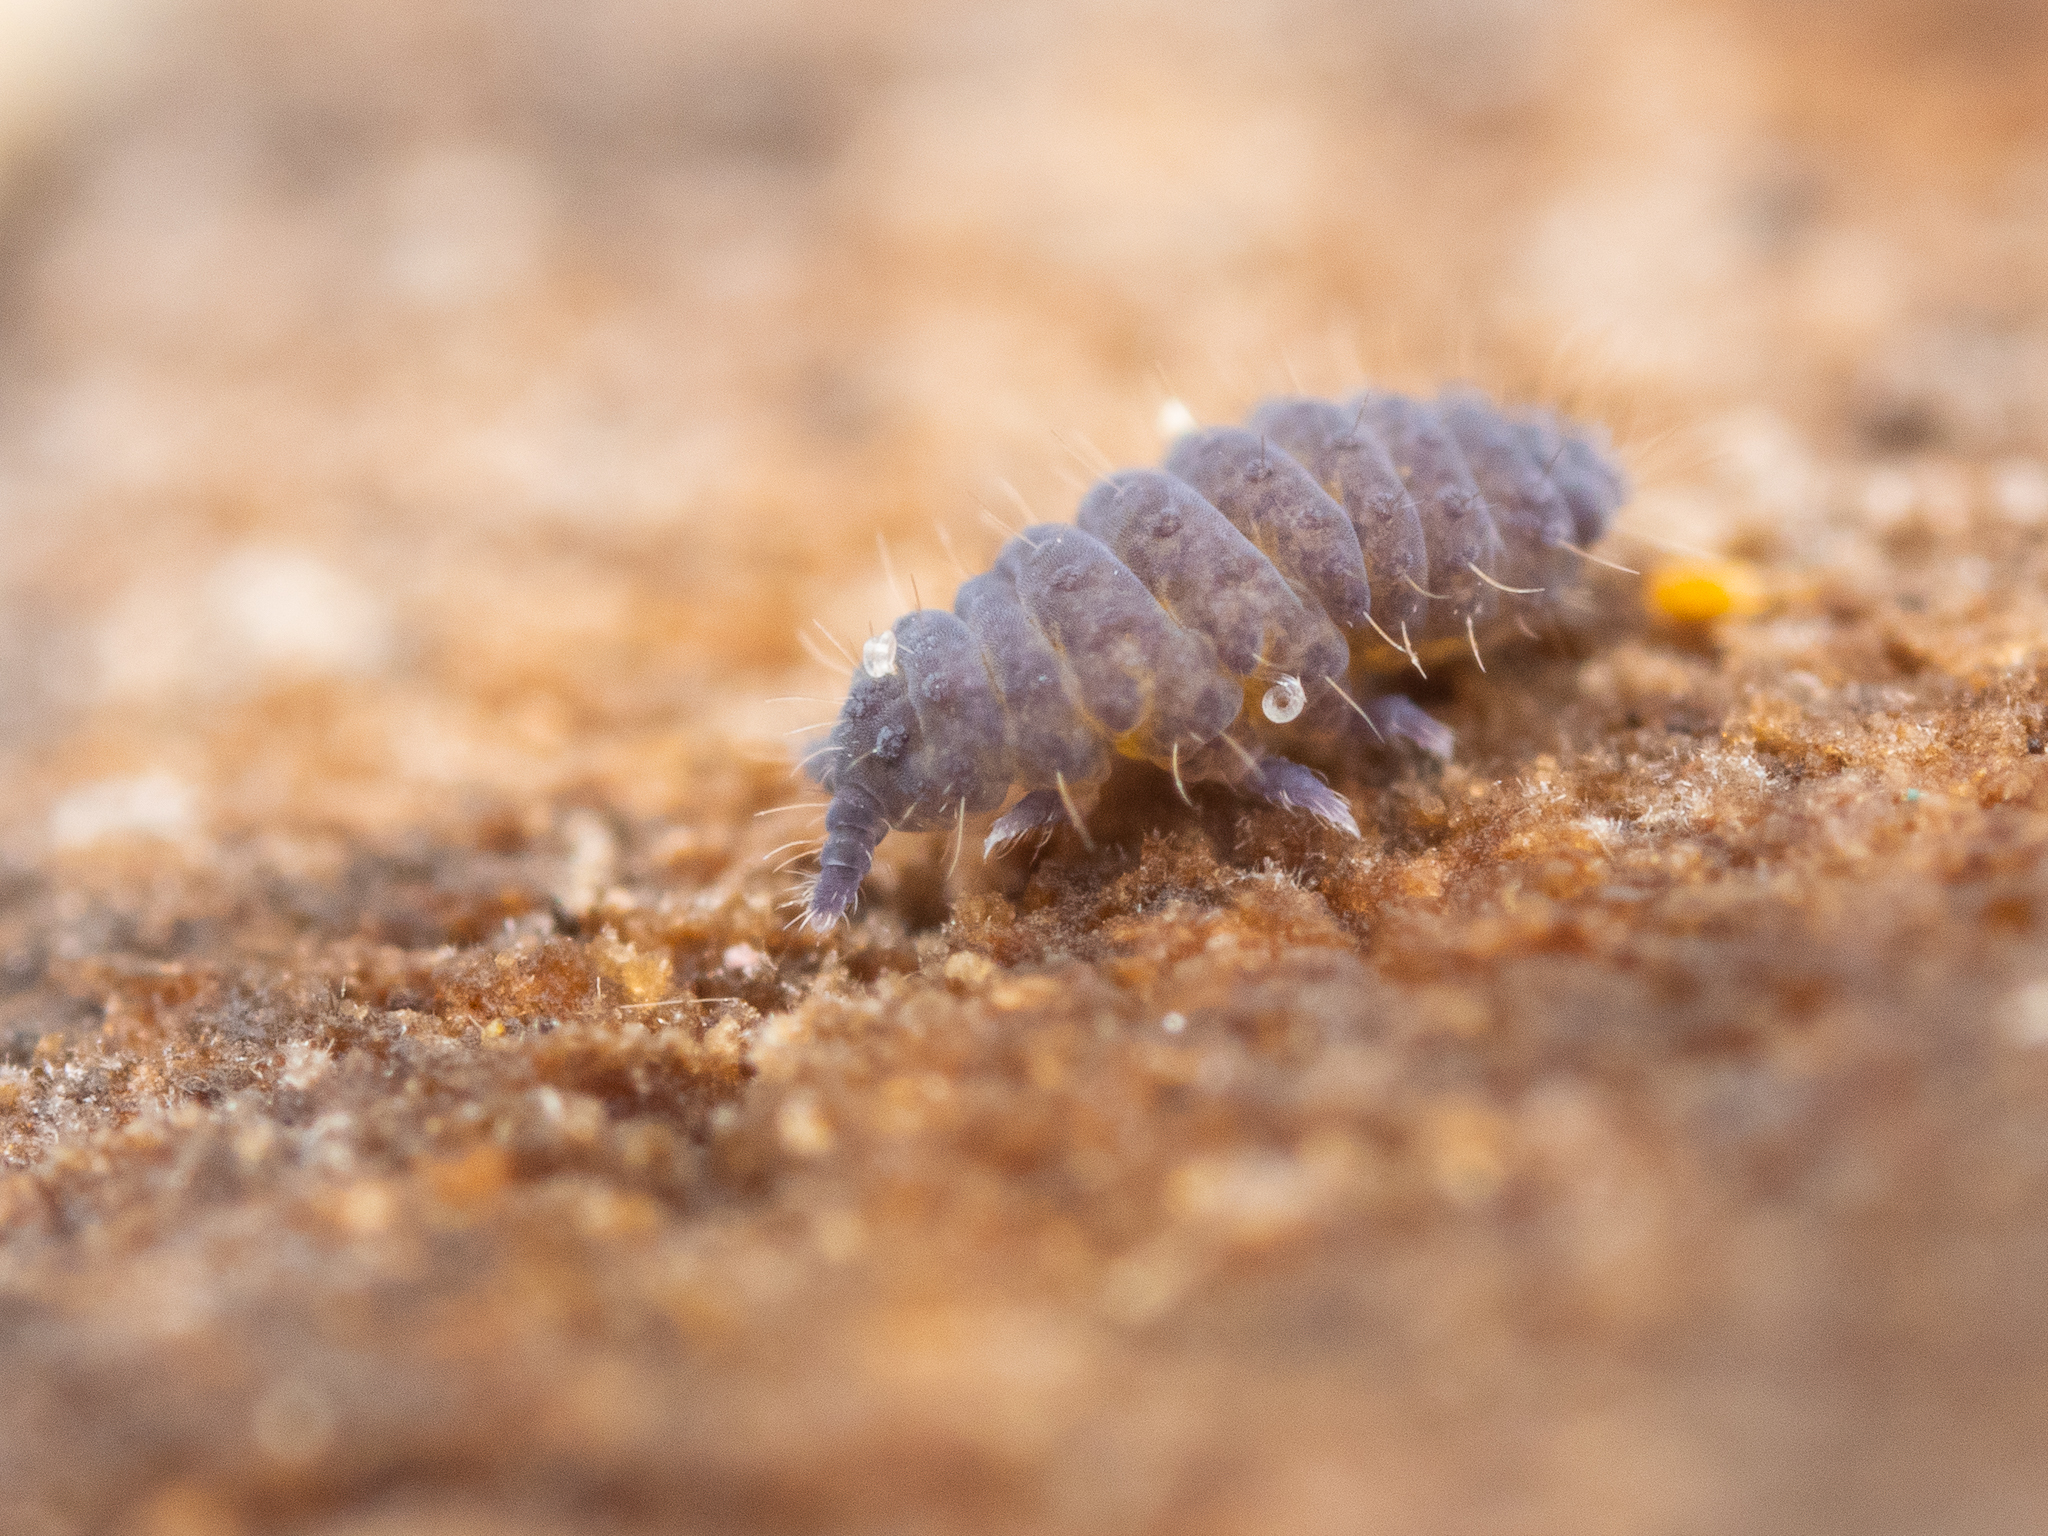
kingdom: Animalia
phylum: Arthropoda
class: Collembola
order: Poduromorpha
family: Neanuridae
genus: Neanura
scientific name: Neanura muscorum
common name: Springtail
